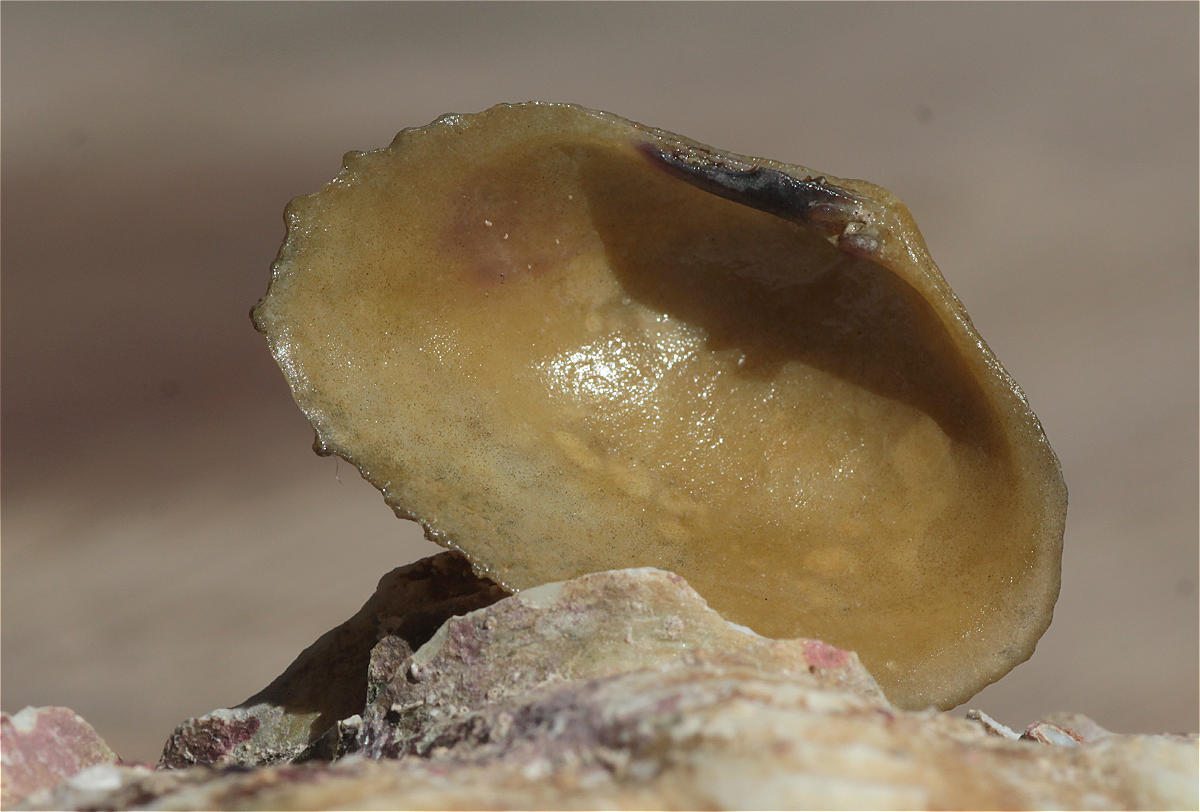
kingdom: Animalia
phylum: Mollusca
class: Bivalvia
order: Cardiida
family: Psammobiidae
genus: Asaphis
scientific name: Asaphis violascens
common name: Pacific asaphis
